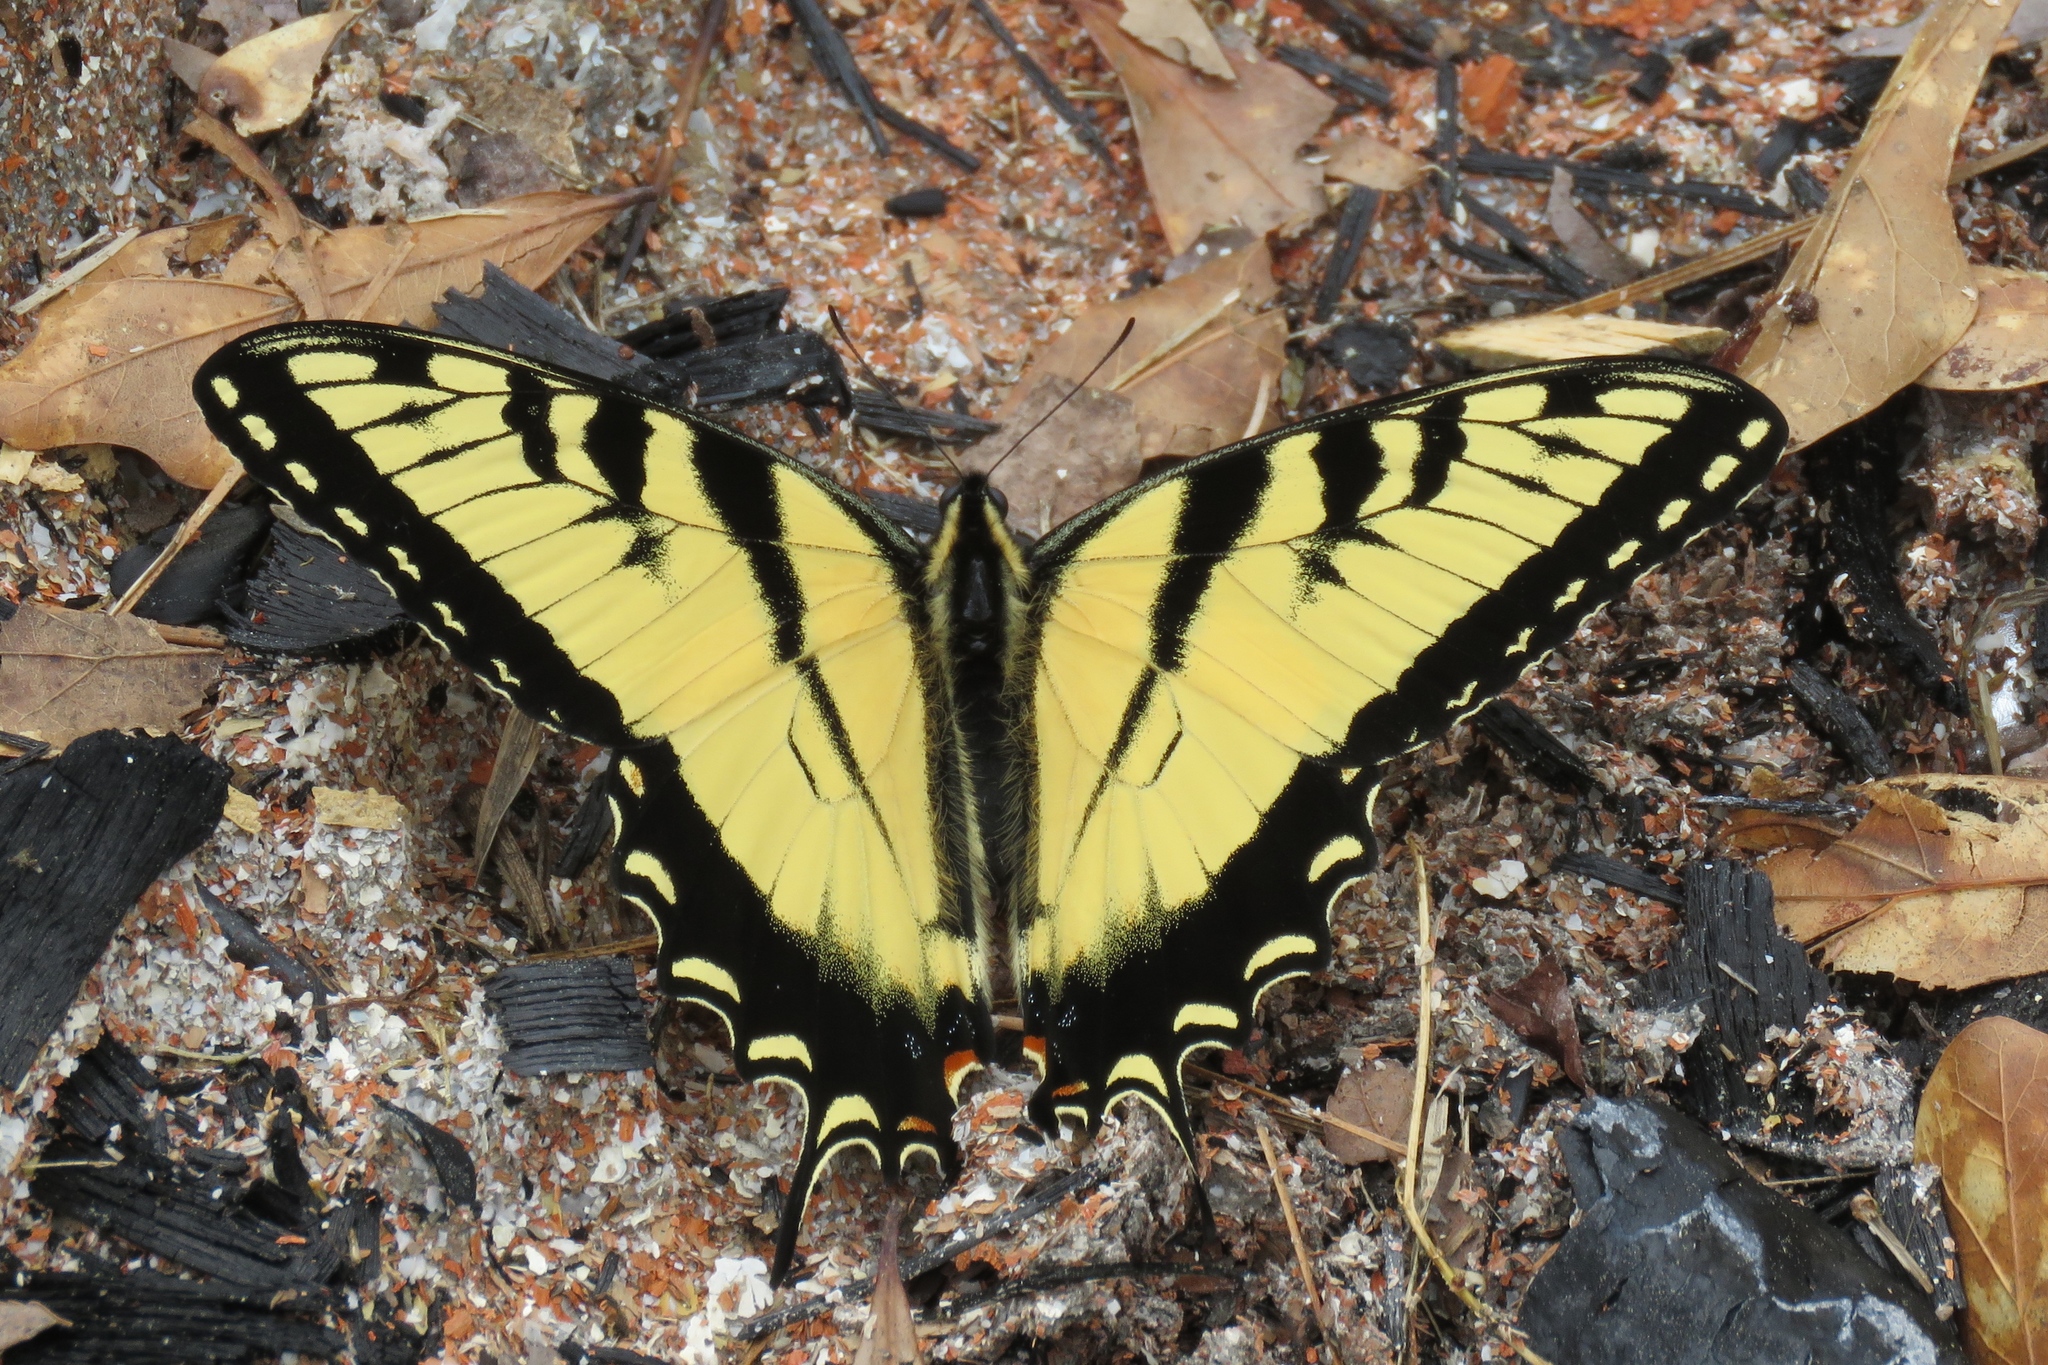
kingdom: Animalia
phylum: Arthropoda
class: Insecta
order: Lepidoptera
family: Papilionidae
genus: Papilio
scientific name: Papilio glaucus
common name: Tiger swallowtail
